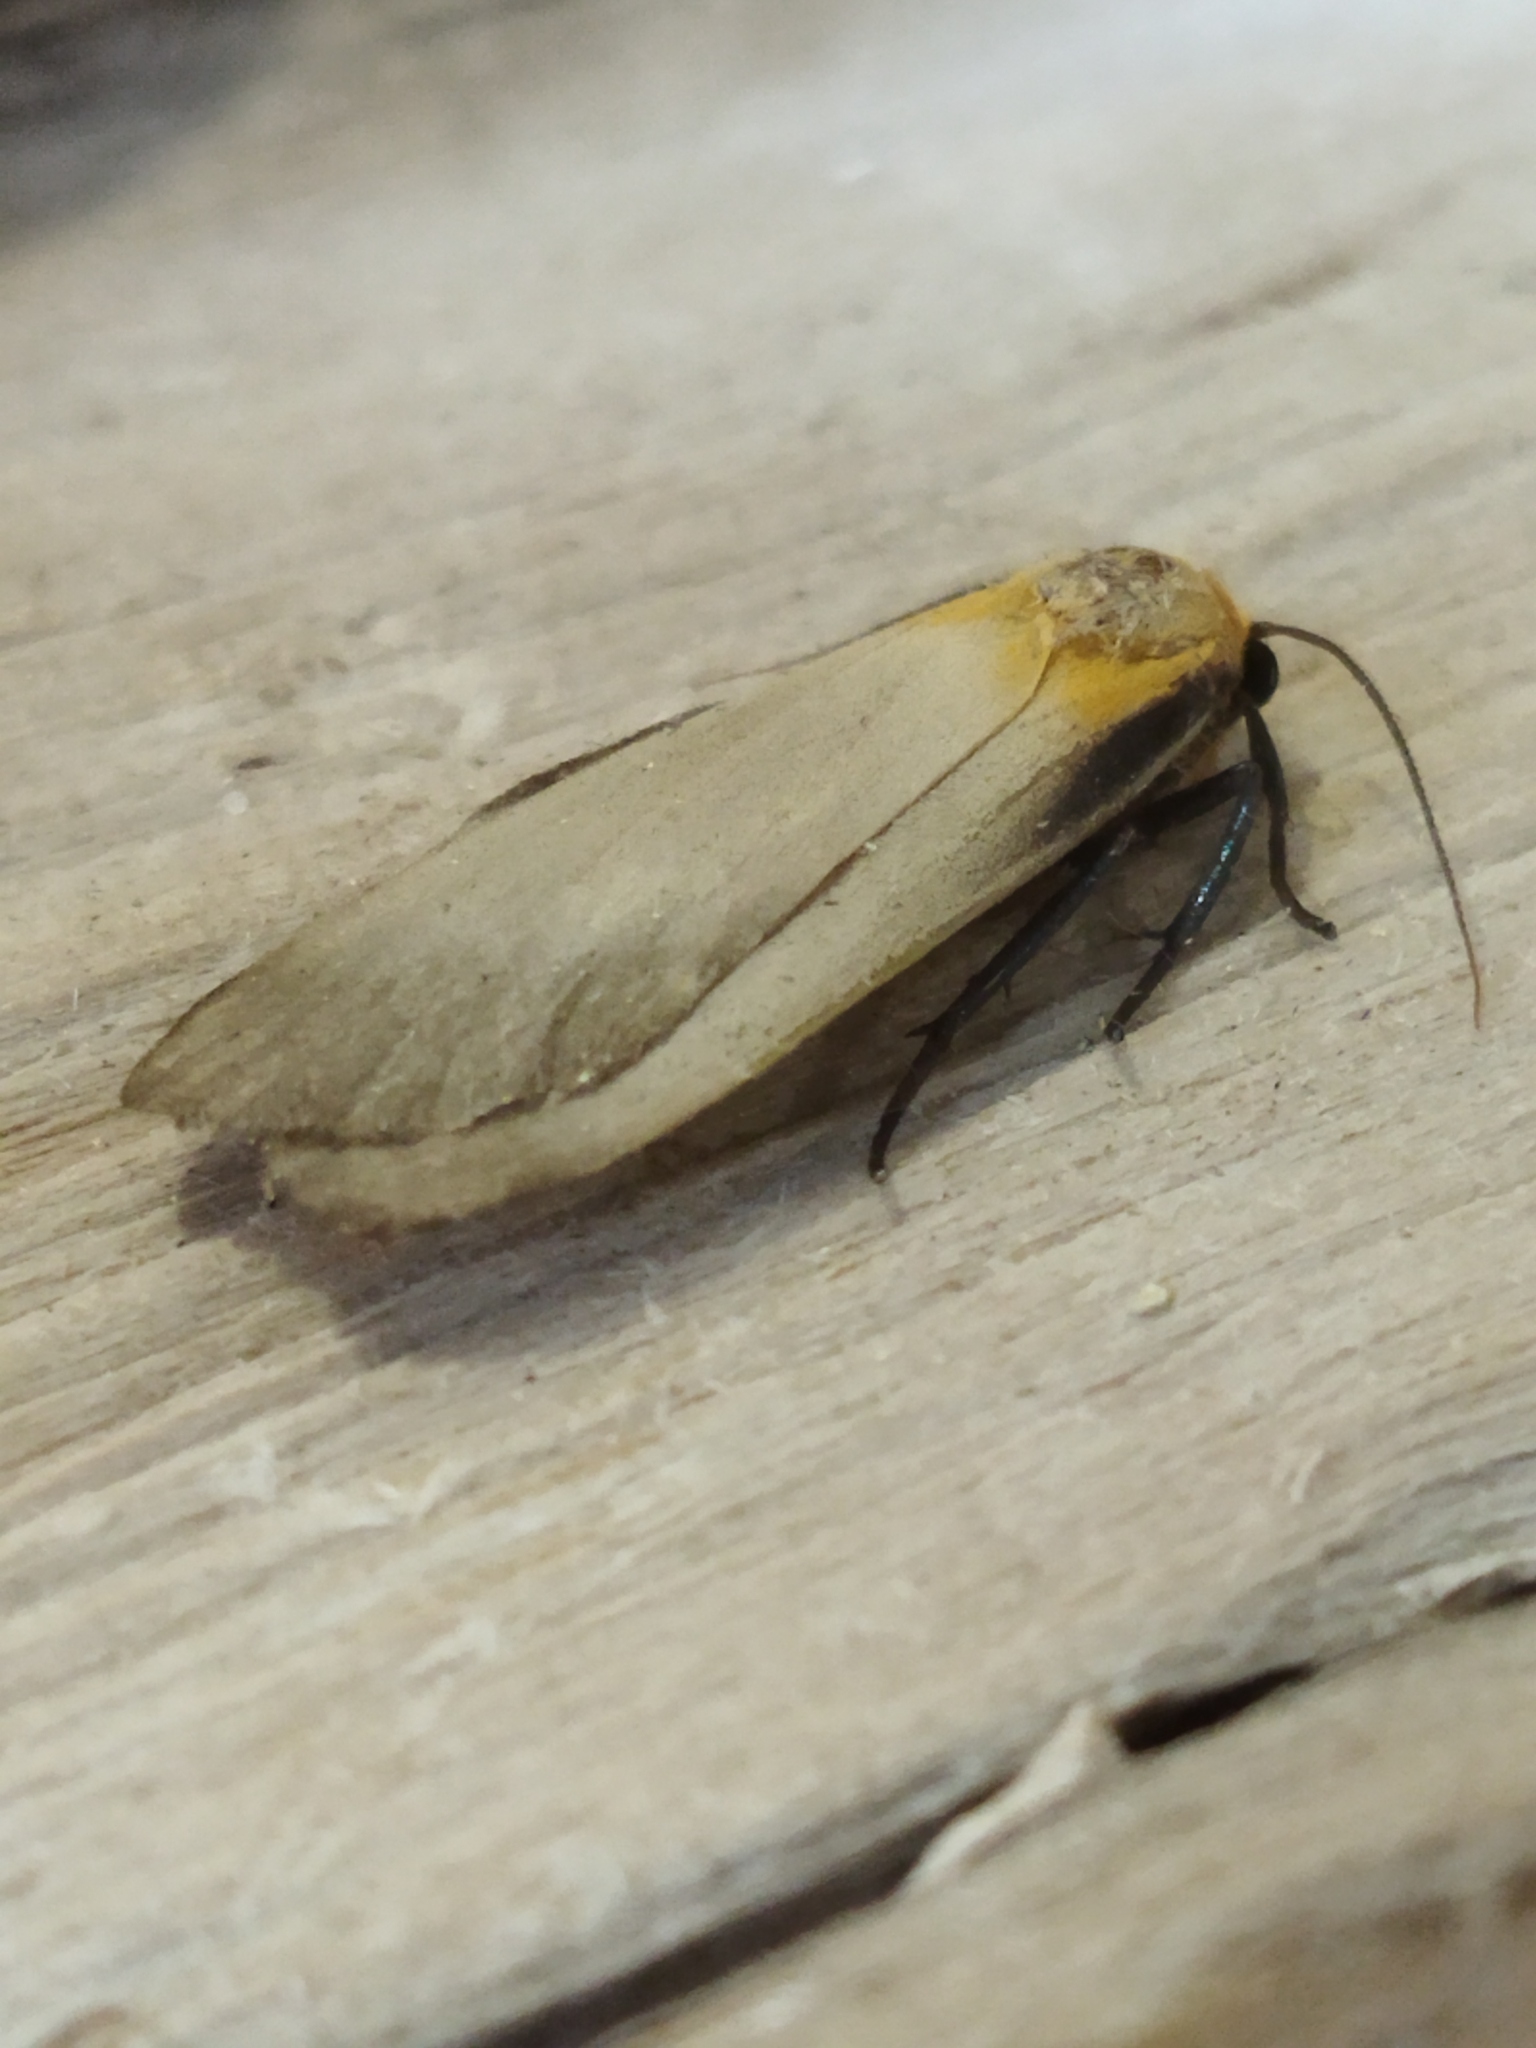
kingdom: Animalia
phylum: Arthropoda
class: Insecta
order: Lepidoptera
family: Erebidae
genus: Lithosia
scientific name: Lithosia quadra
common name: Four-spotted footman
